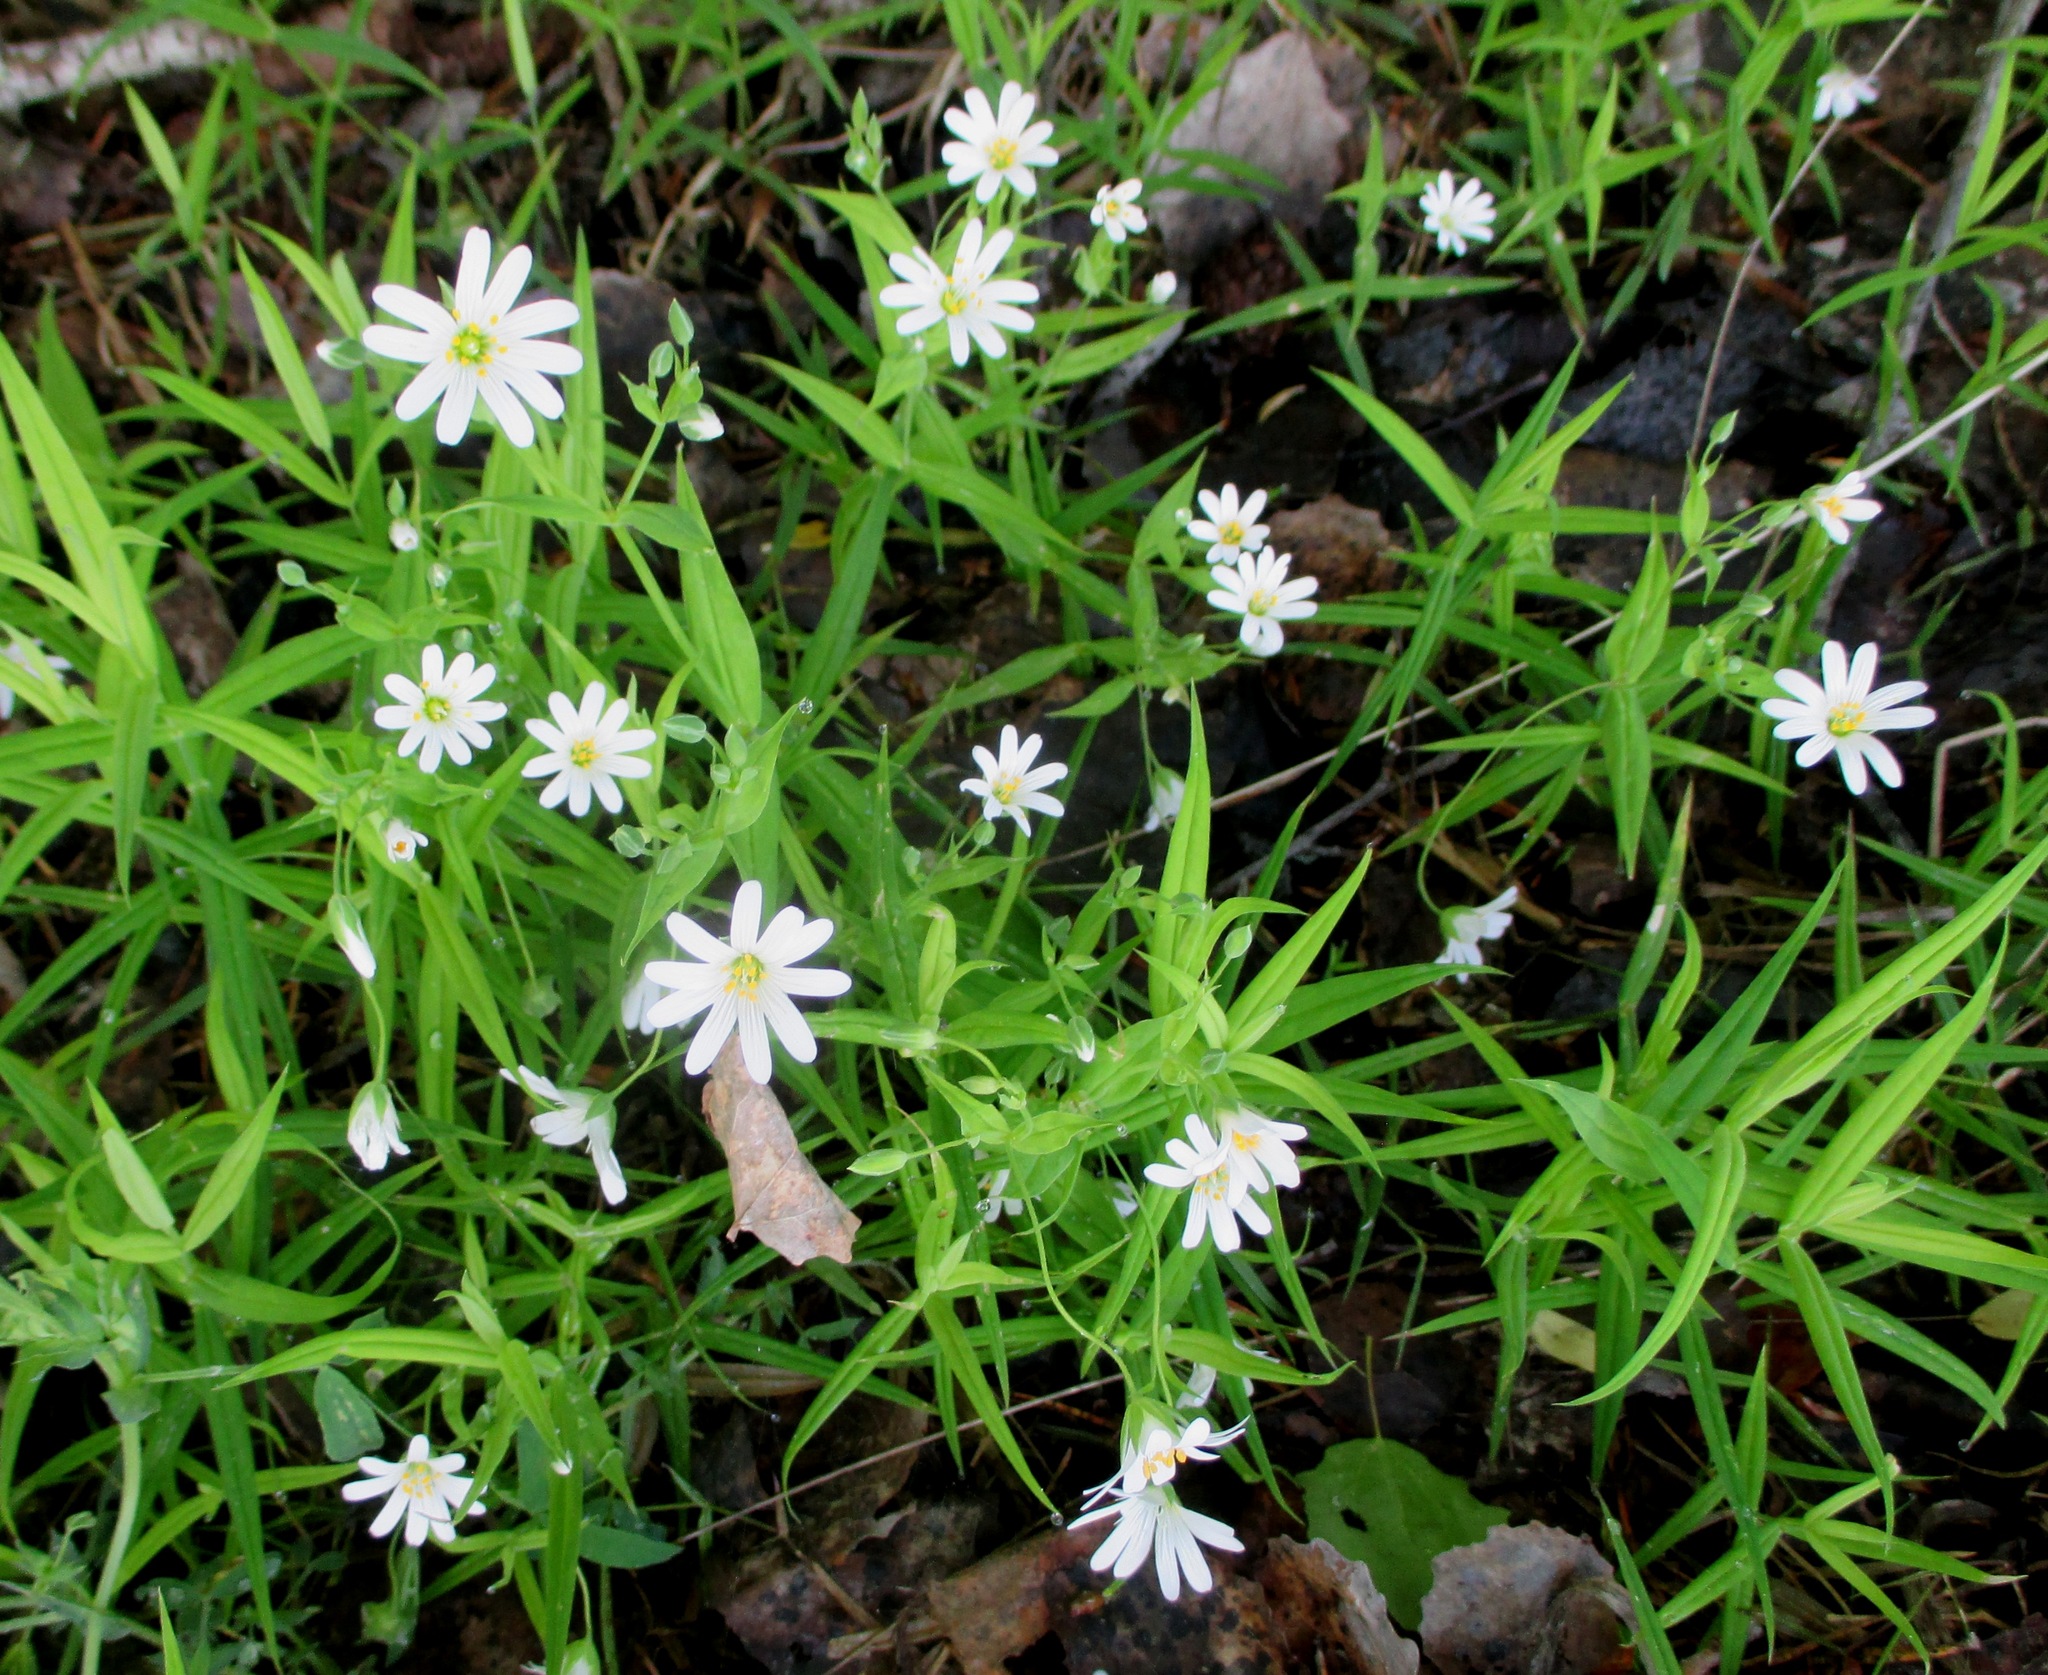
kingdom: Plantae
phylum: Tracheophyta
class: Magnoliopsida
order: Caryophyllales
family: Caryophyllaceae
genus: Rabelera
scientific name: Rabelera holostea
